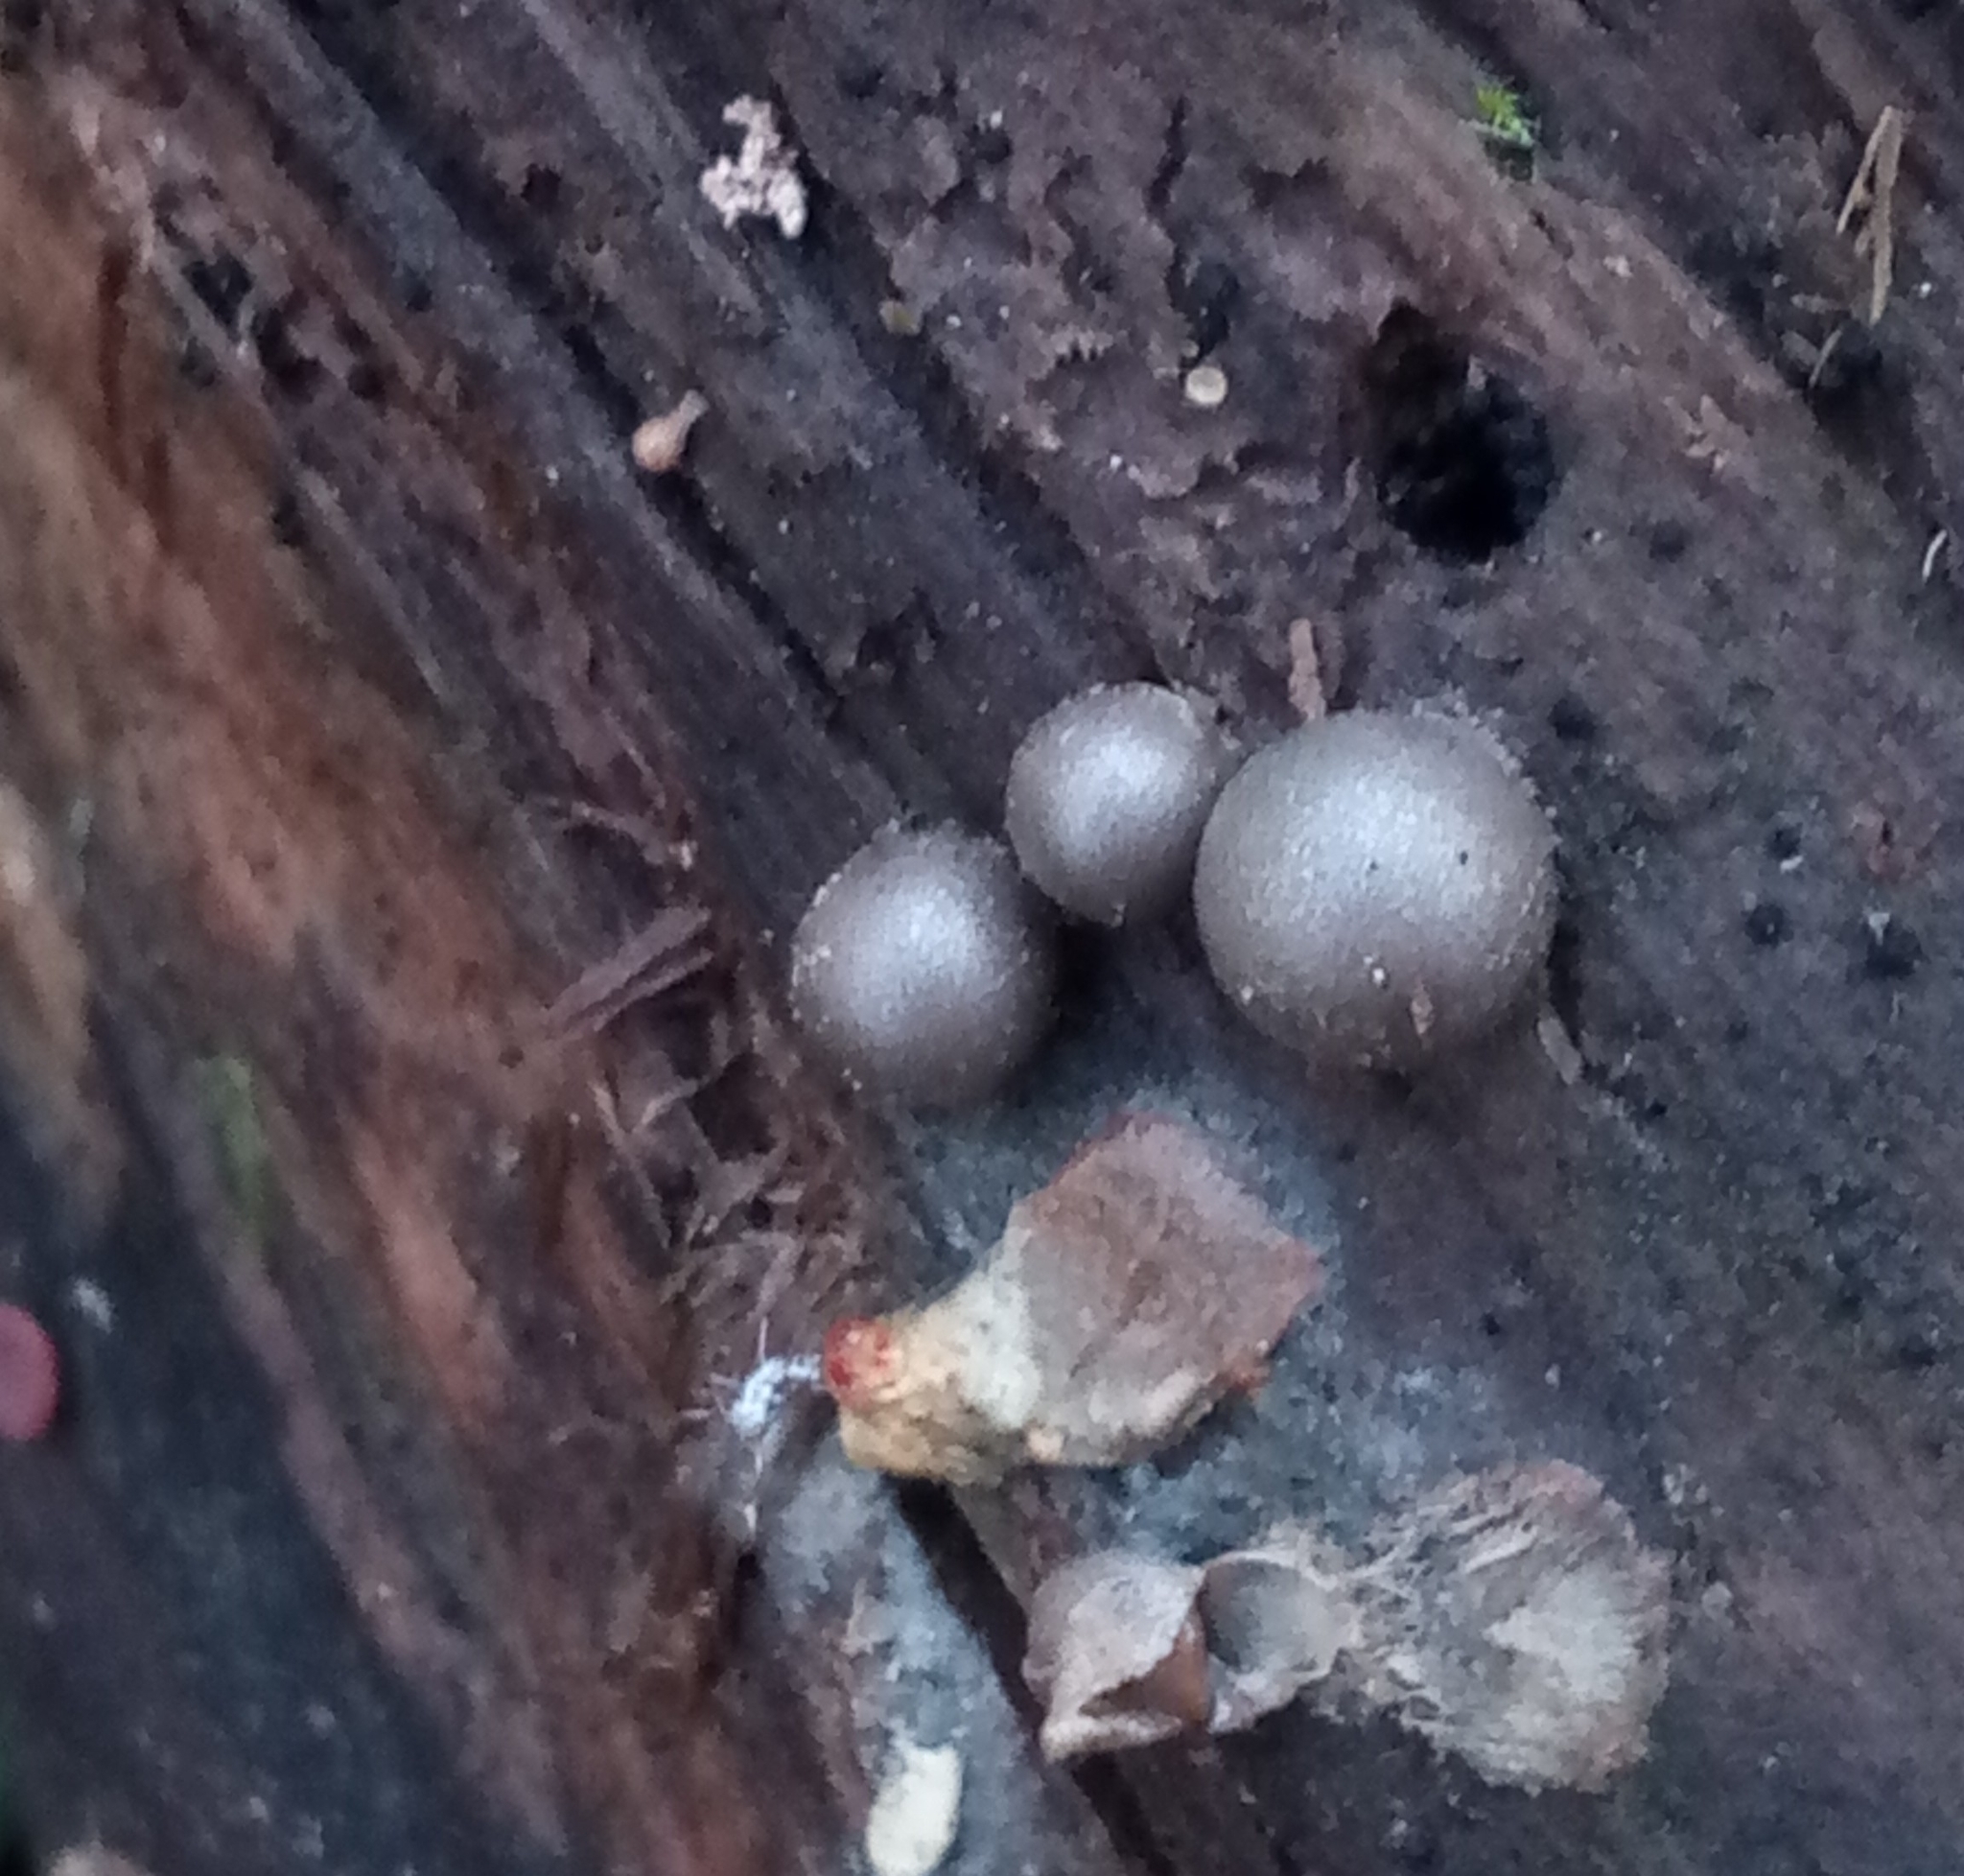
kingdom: Protozoa
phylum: Mycetozoa
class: Myxomycetes
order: Cribrariales
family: Tubiferaceae
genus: Lycogala
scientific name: Lycogala epidendrum
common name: Wolf's milk
